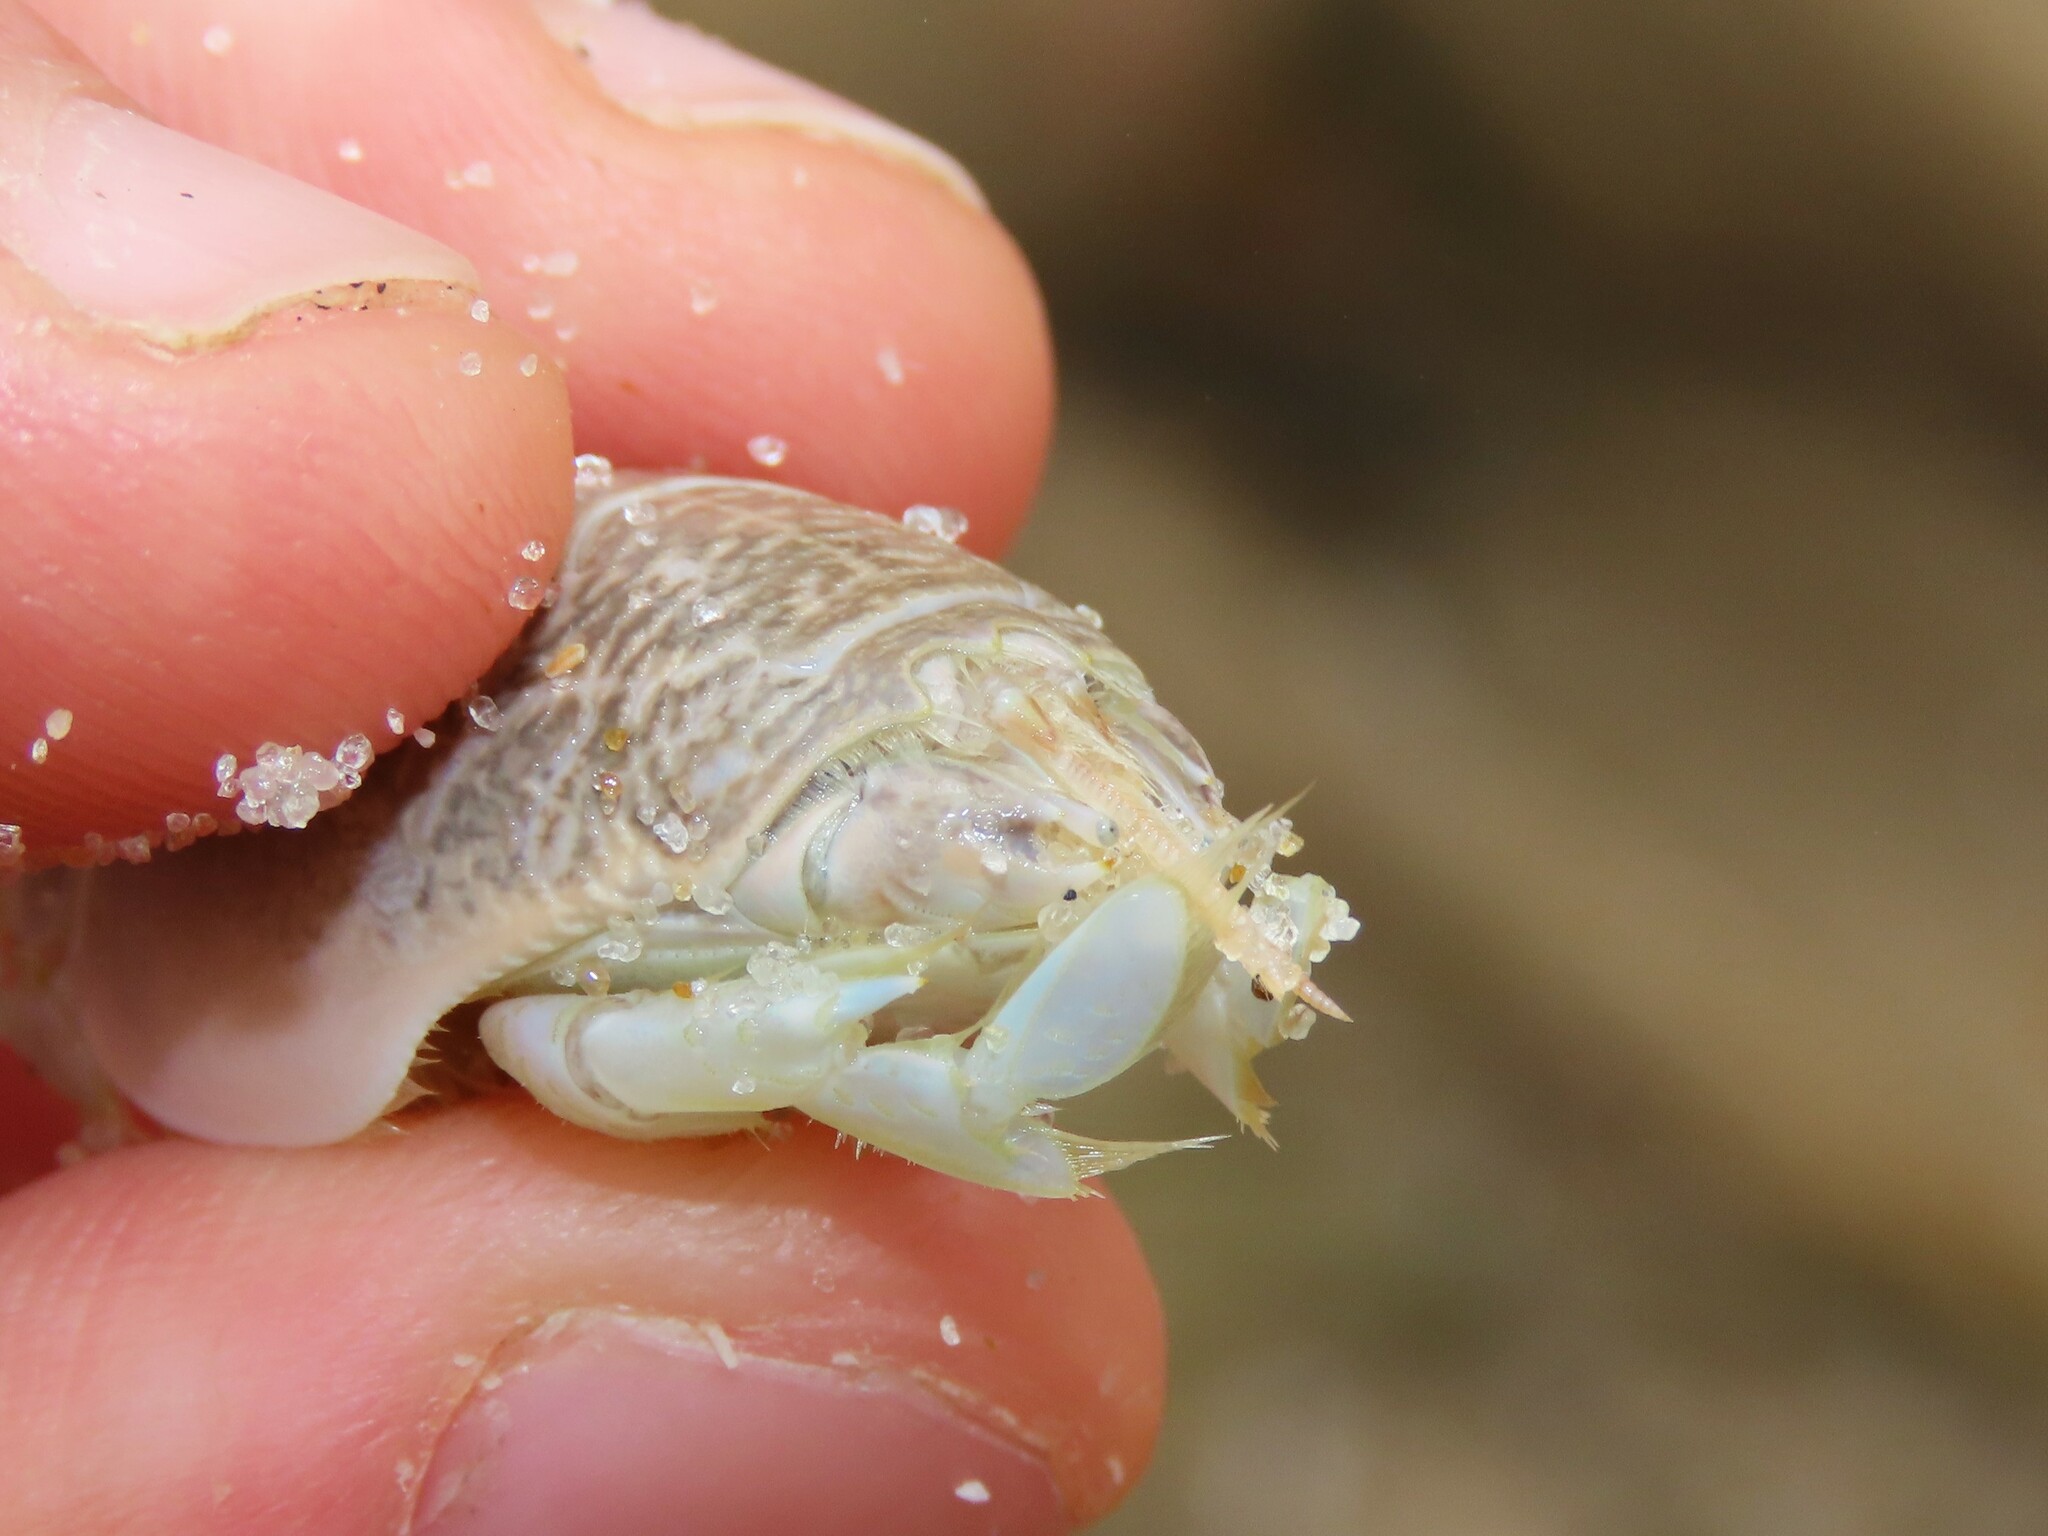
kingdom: Animalia
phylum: Arthropoda
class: Malacostraca
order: Decapoda
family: Hippidae
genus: Emerita
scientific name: Emerita talpoida
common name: Atlantic sand crab
